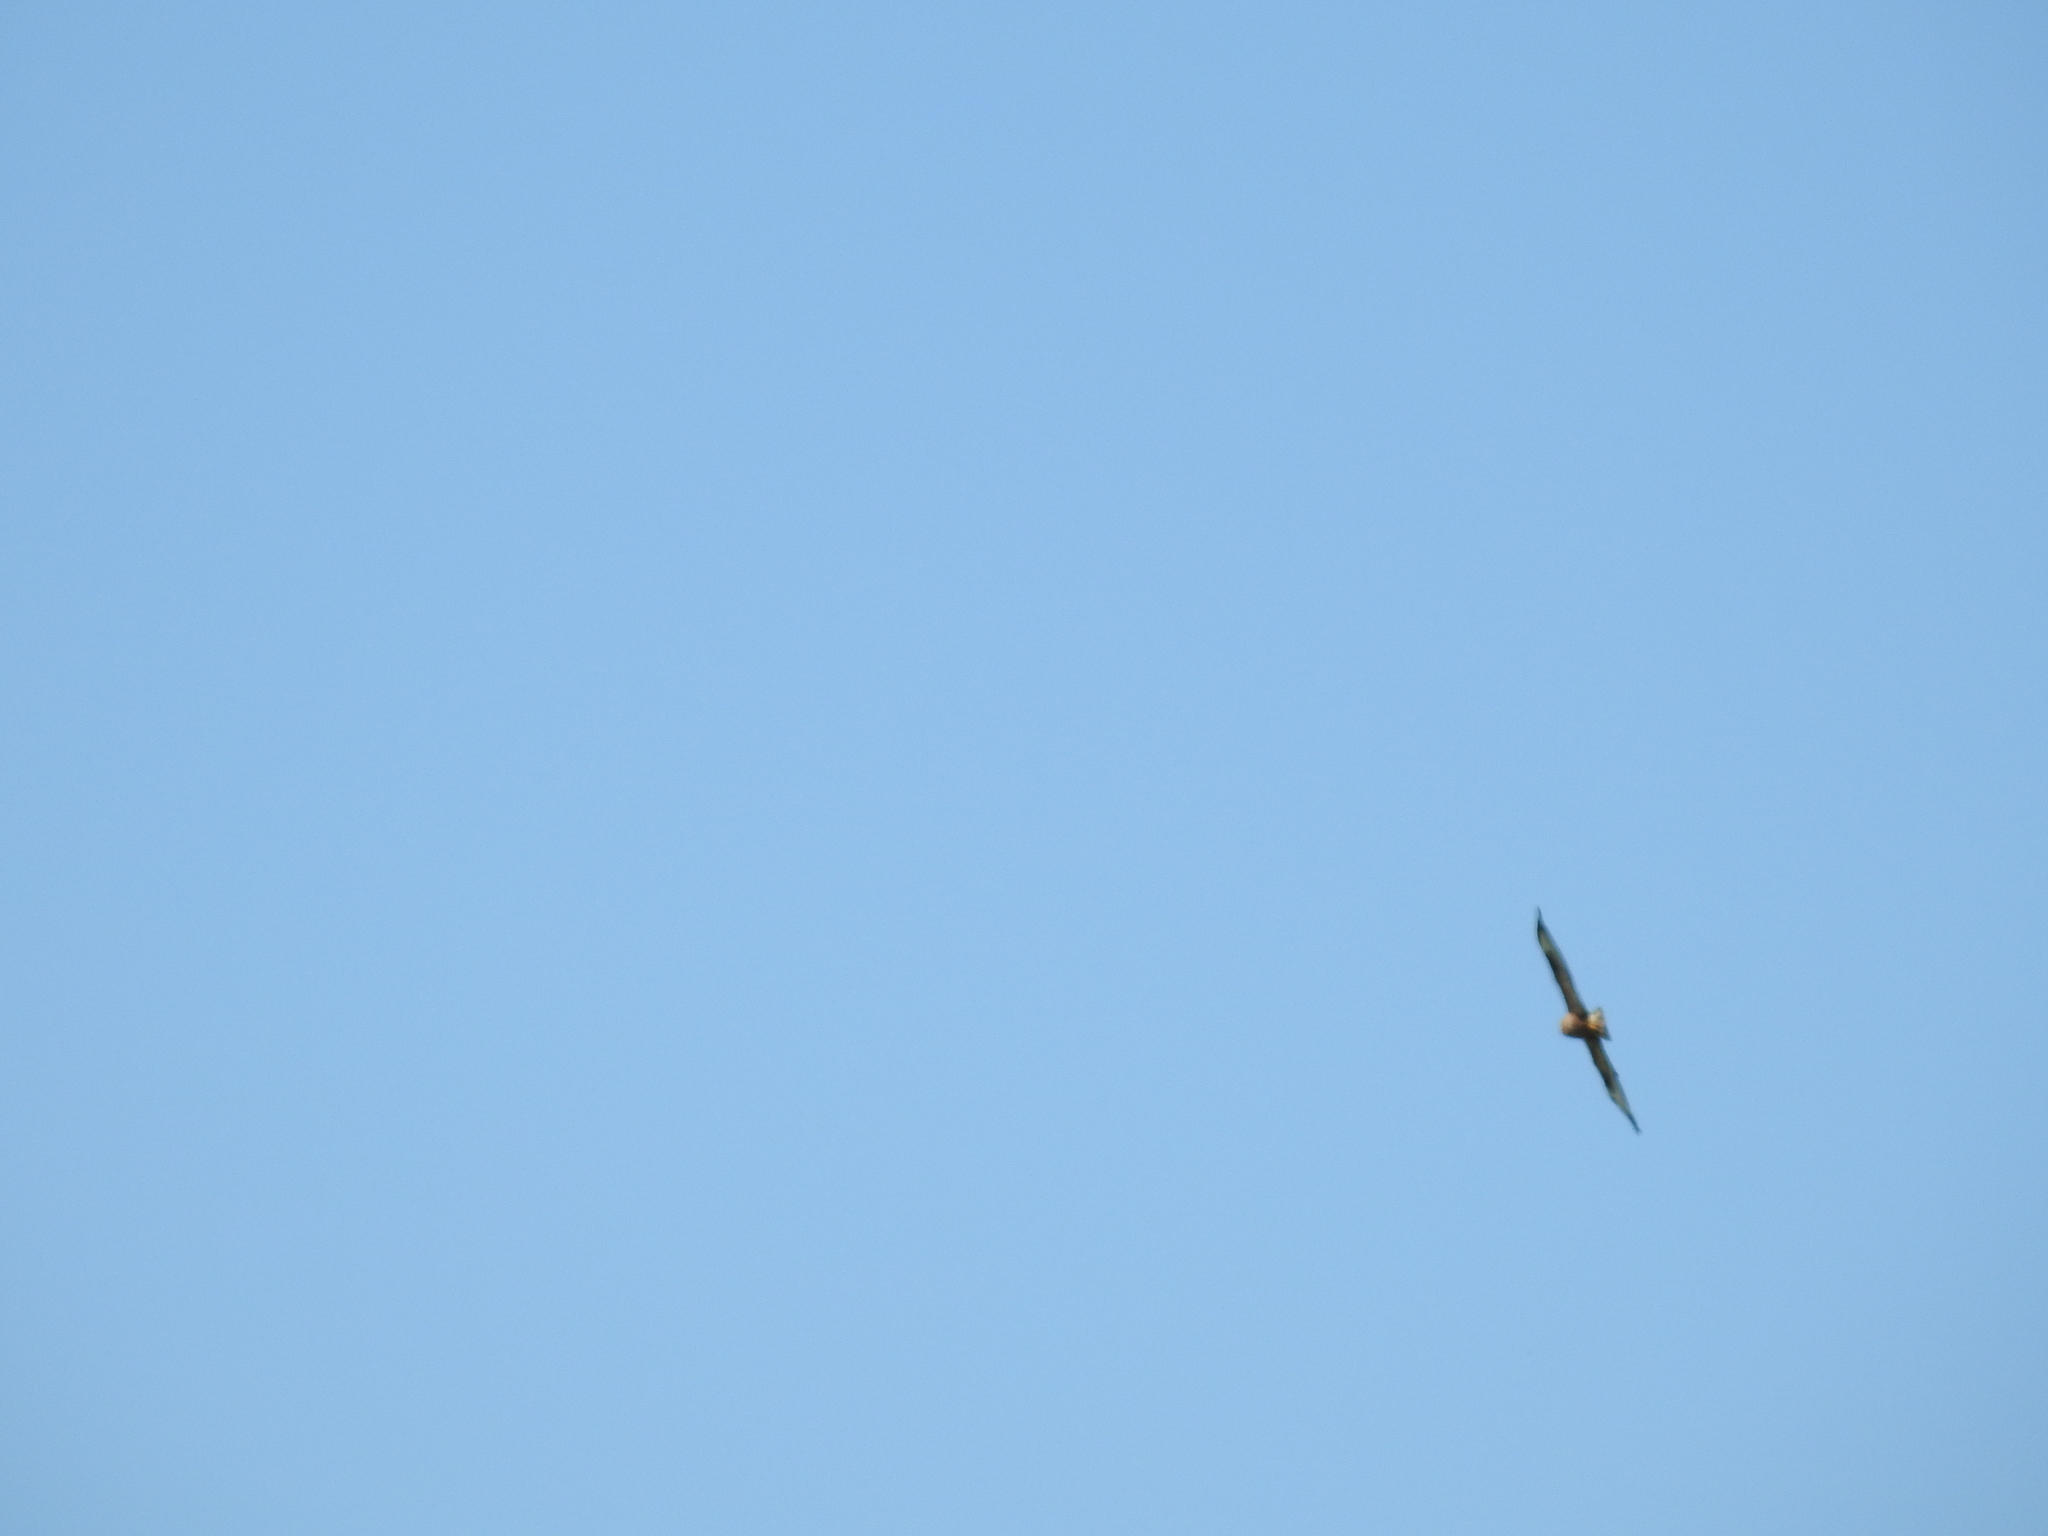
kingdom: Animalia
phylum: Chordata
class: Aves
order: Accipitriformes
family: Accipitridae
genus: Buteo
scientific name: Buteo buteo
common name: Common buzzard
